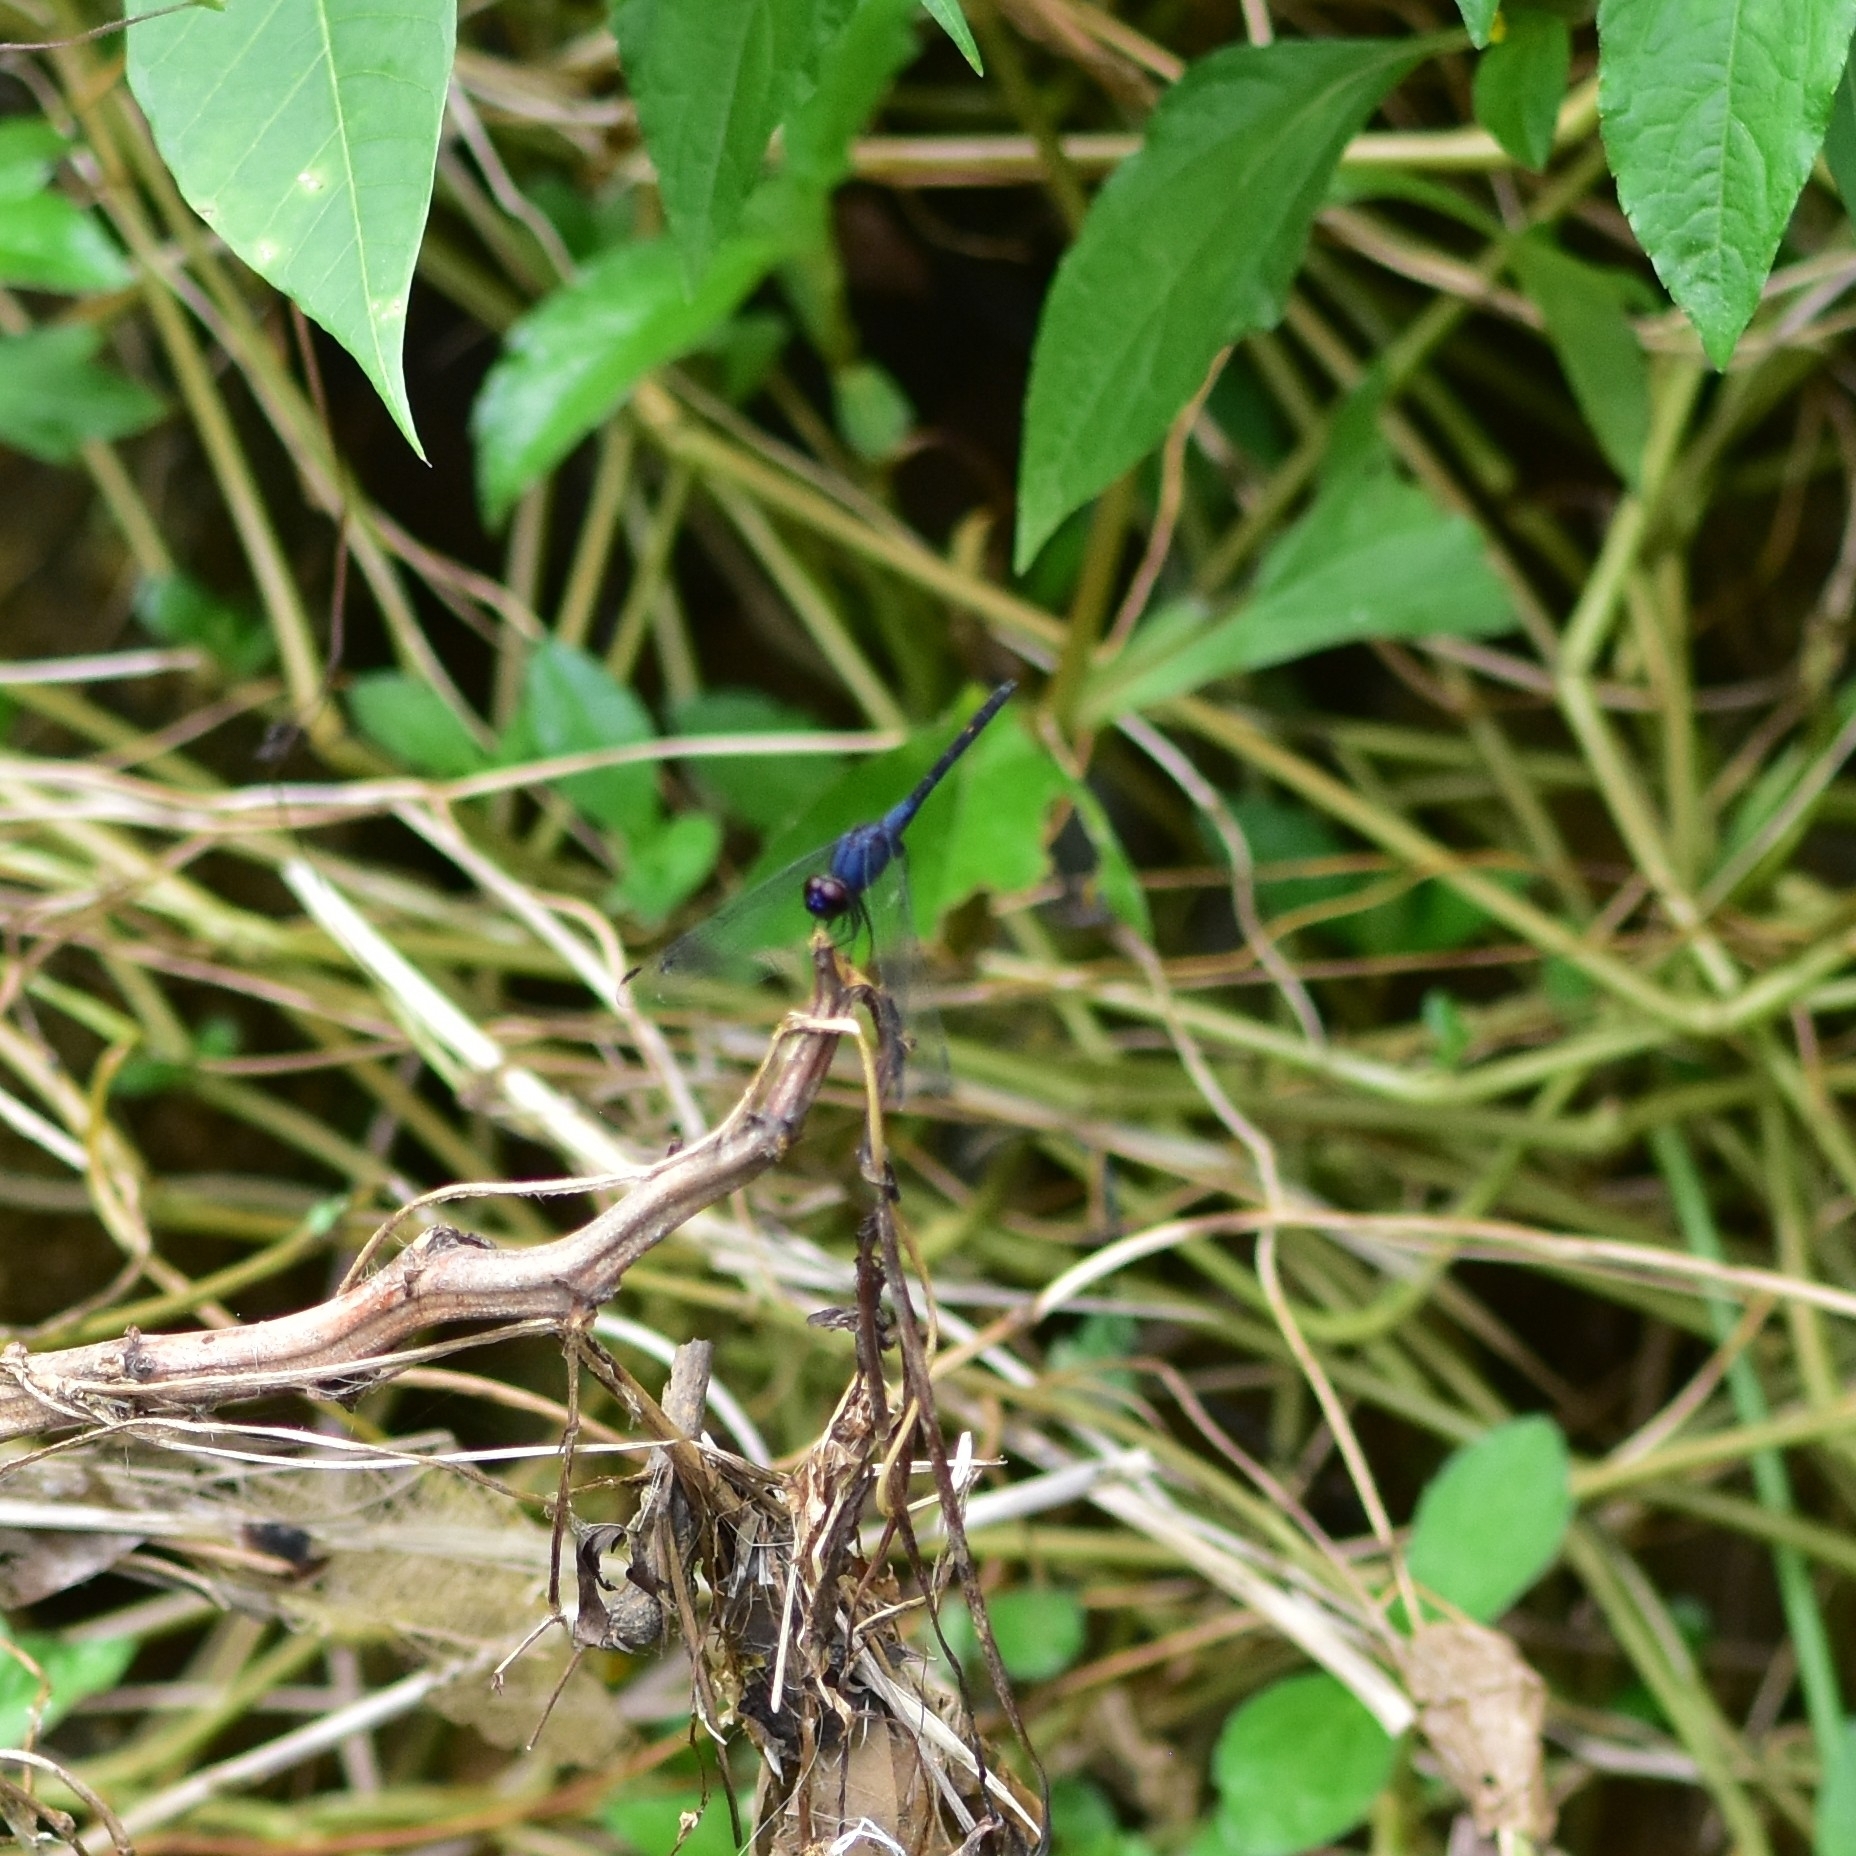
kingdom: Animalia
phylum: Arthropoda
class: Insecta
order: Odonata
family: Libellulidae
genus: Trithemis
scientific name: Trithemis festiva
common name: Indigo dropwing
